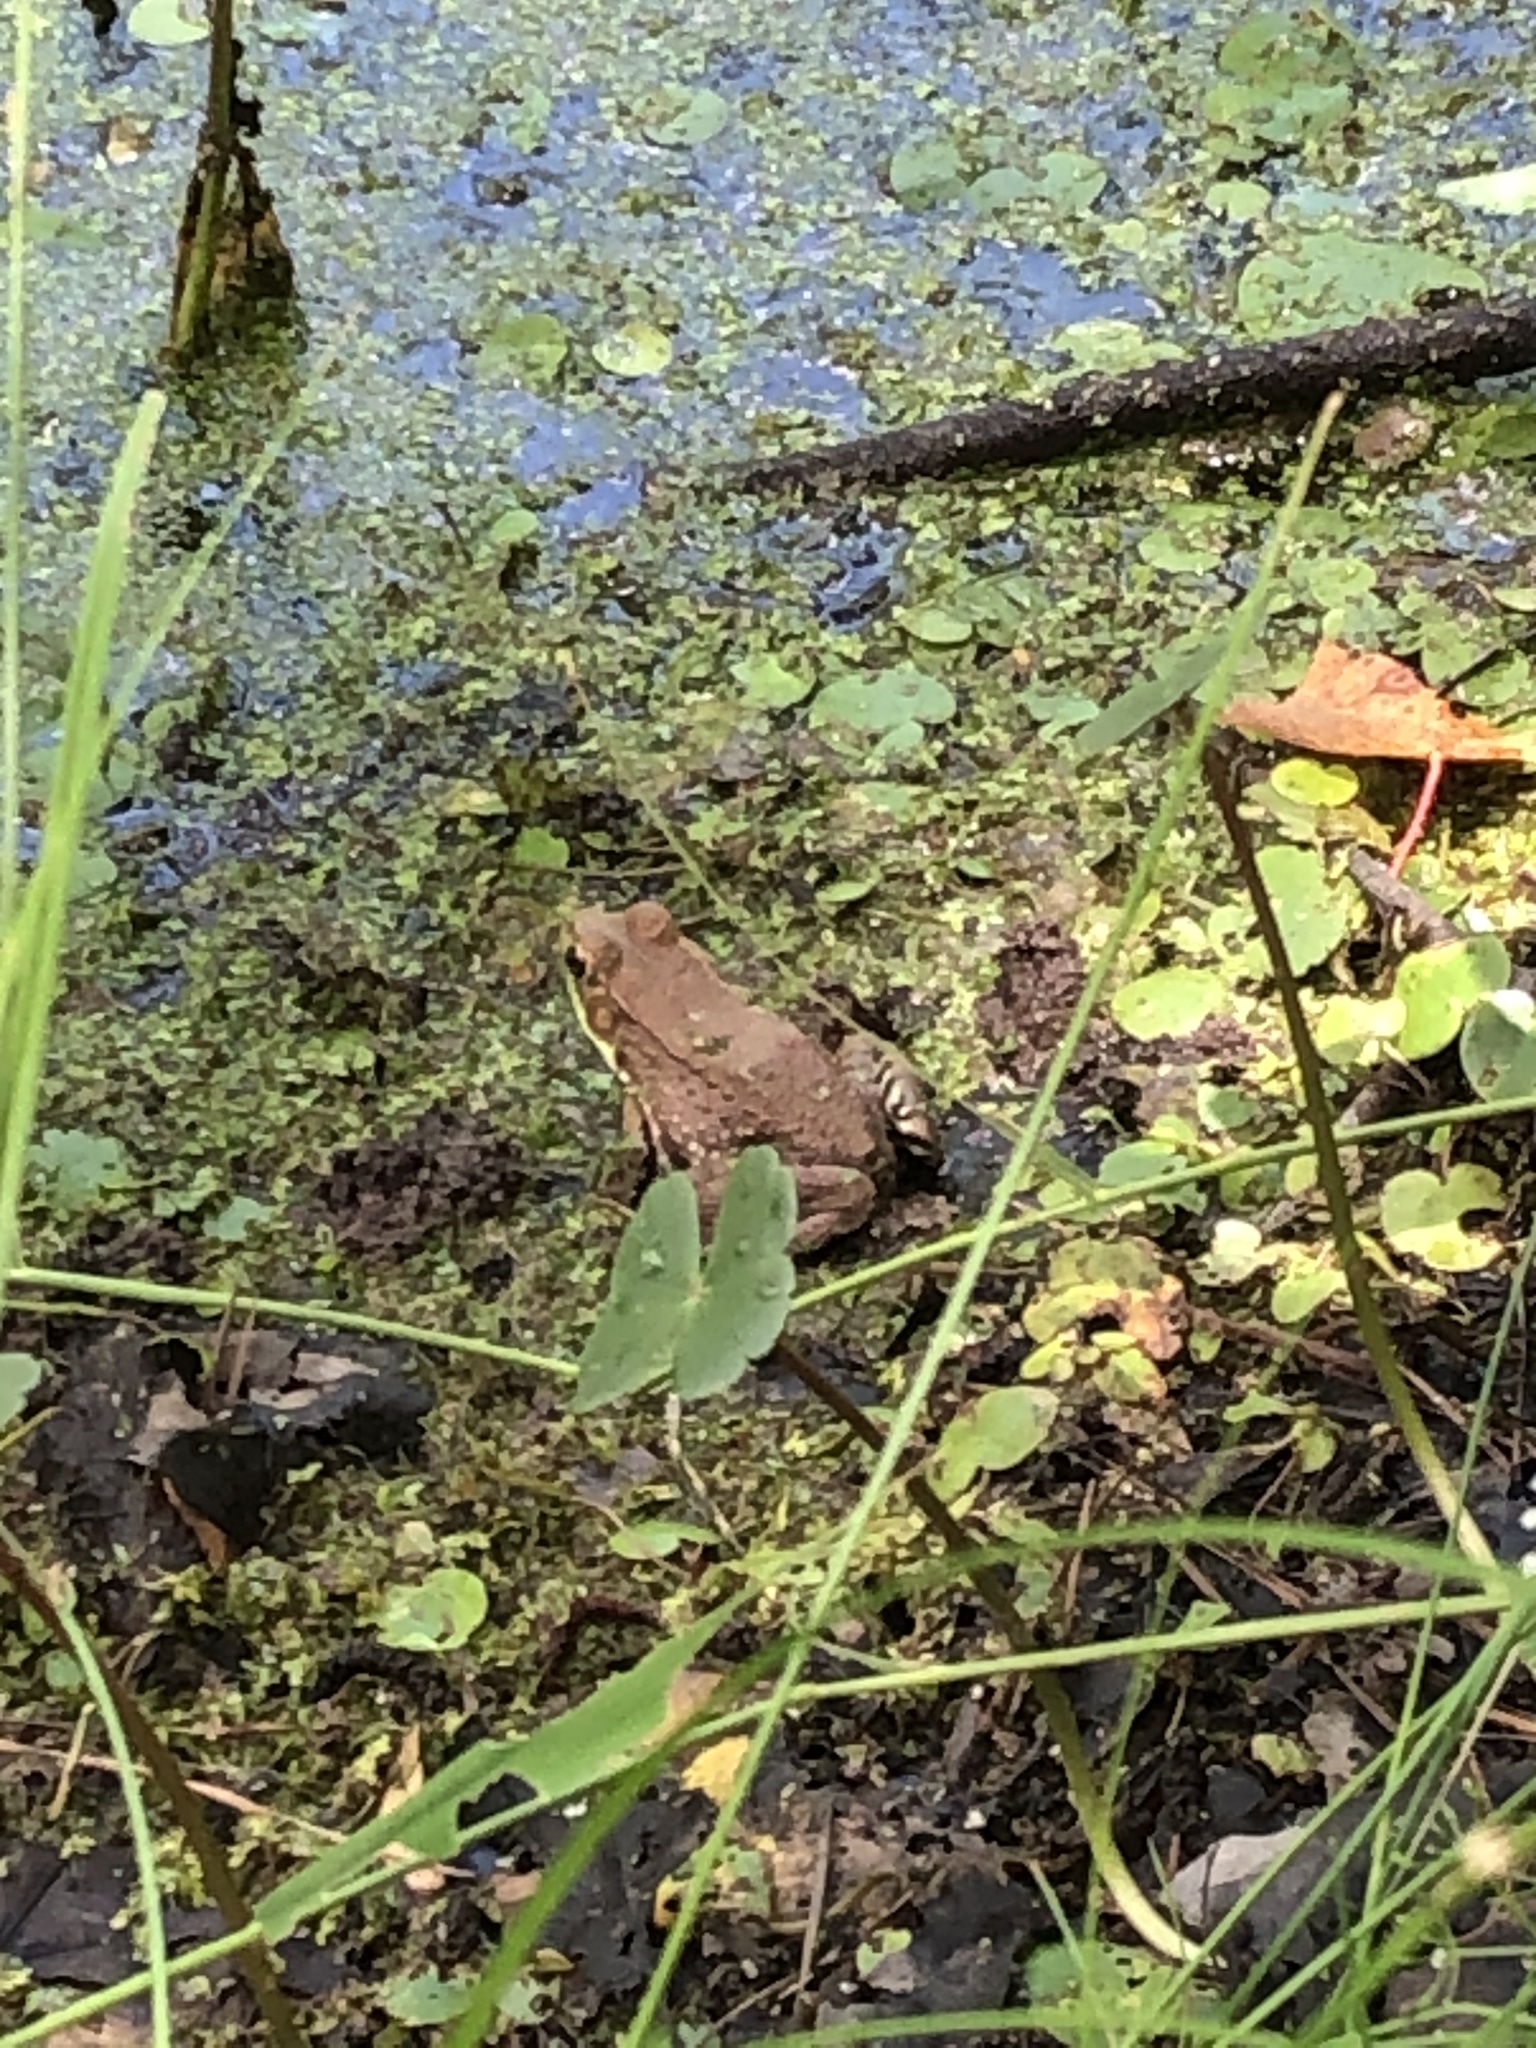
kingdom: Animalia
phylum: Chordata
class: Amphibia
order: Anura
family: Ranidae
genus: Lithobates
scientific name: Lithobates clamitans
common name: Green frog
